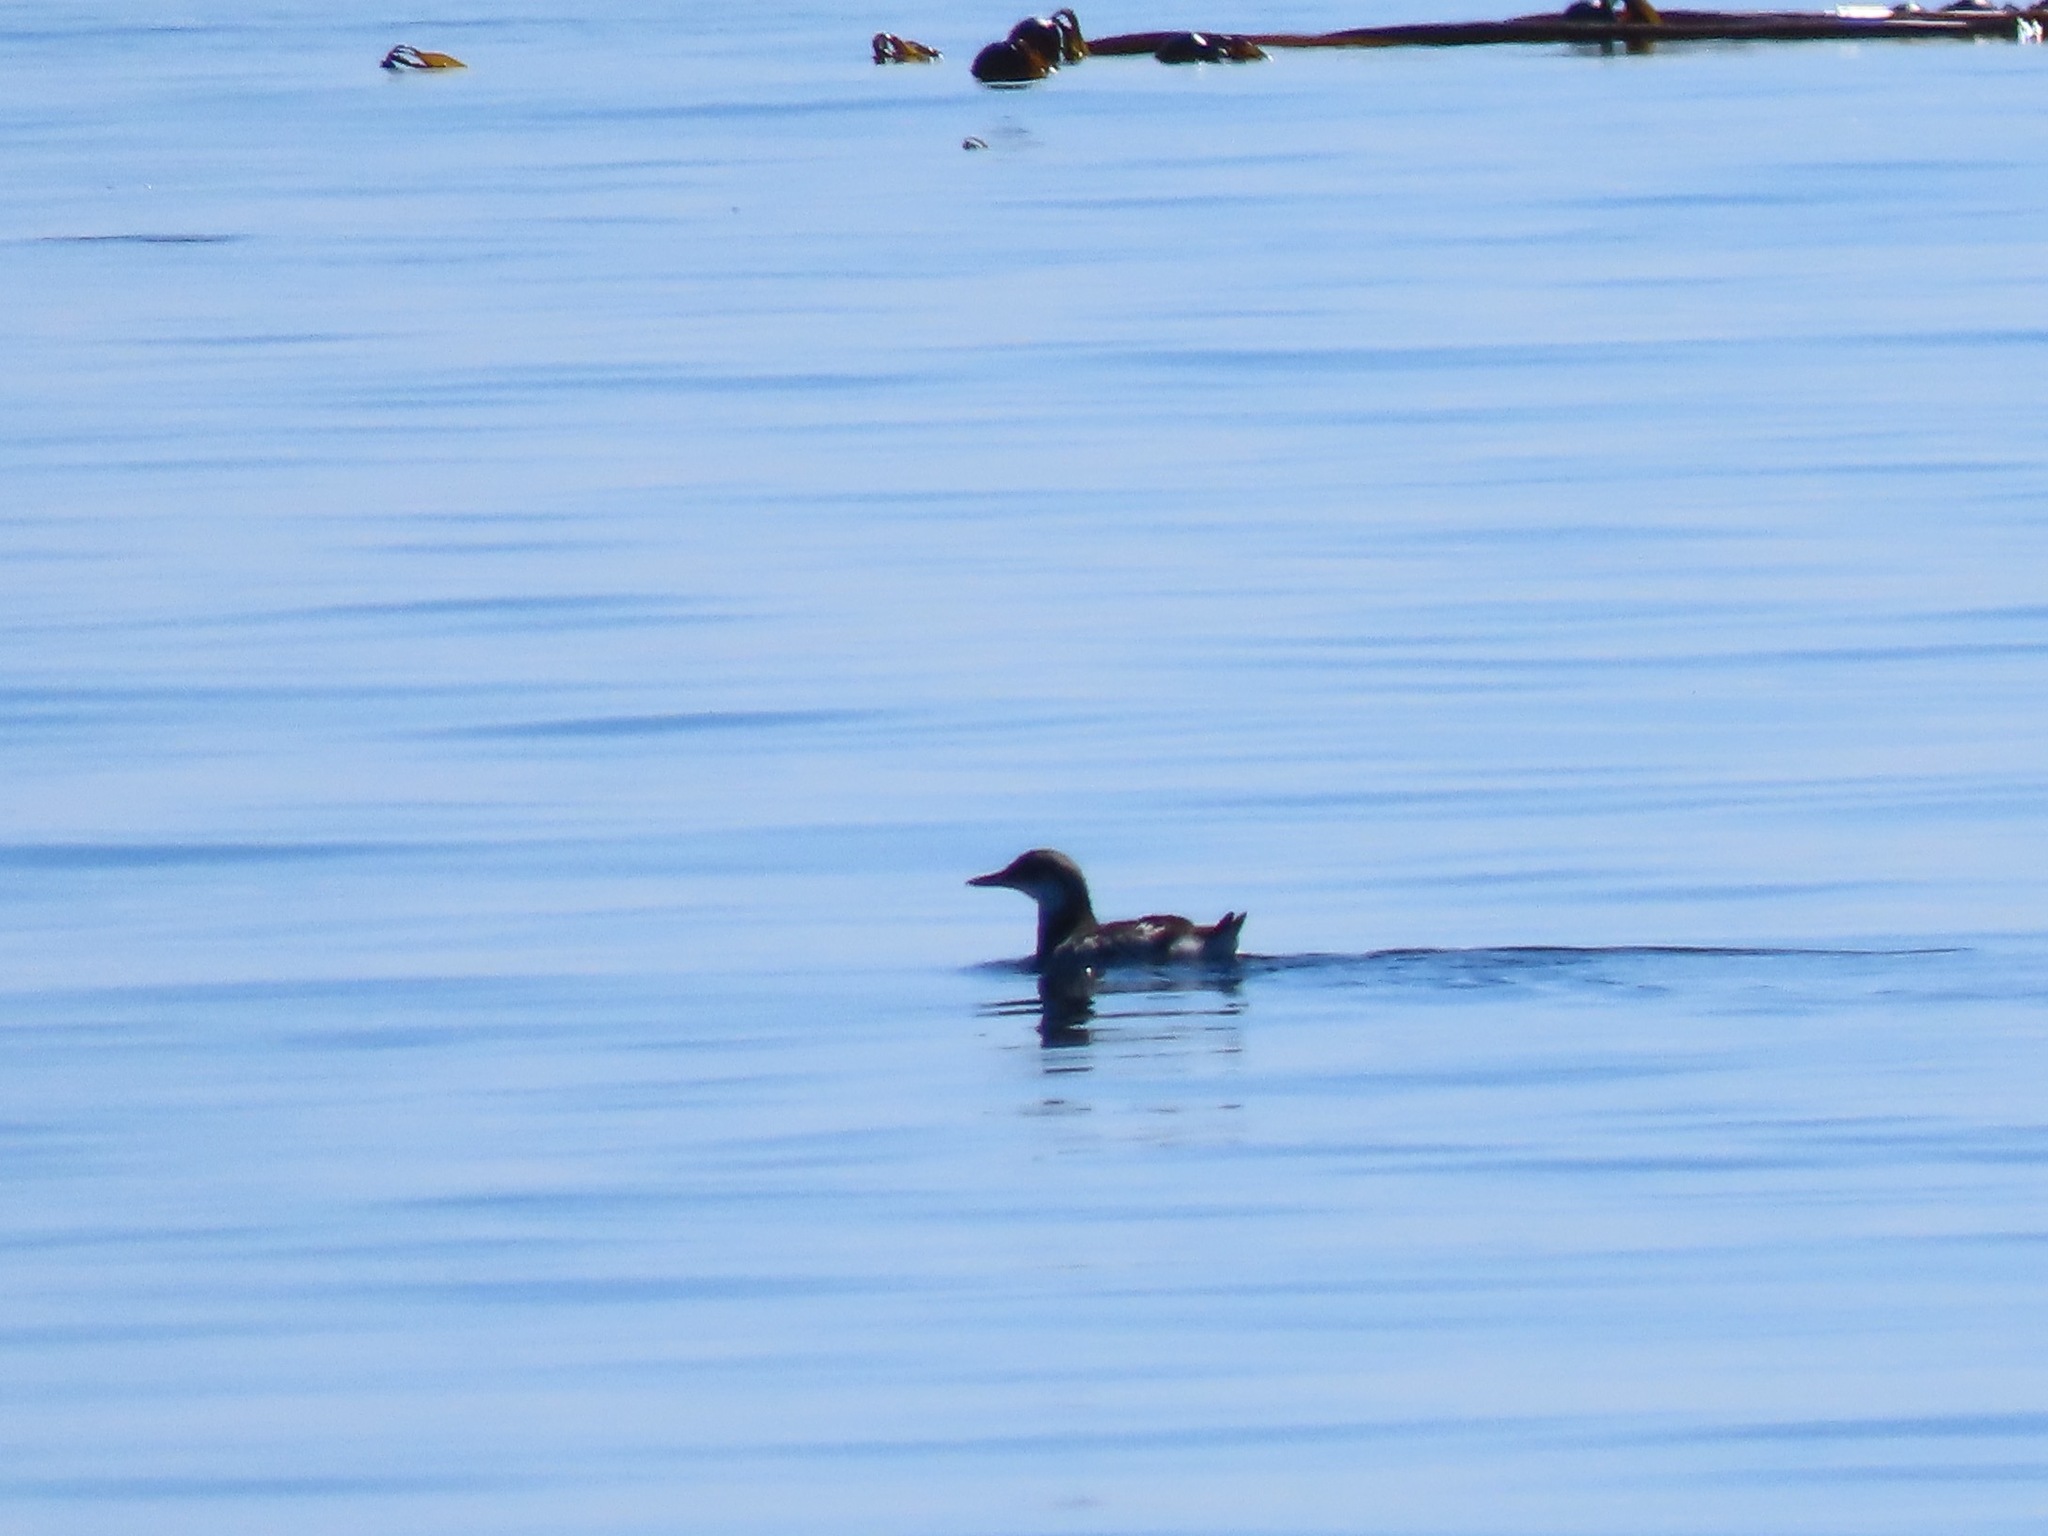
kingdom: Animalia
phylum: Chordata
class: Aves
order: Charadriiformes
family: Alcidae
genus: Cepphus
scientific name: Cepphus columba
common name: Pigeon guillemot
